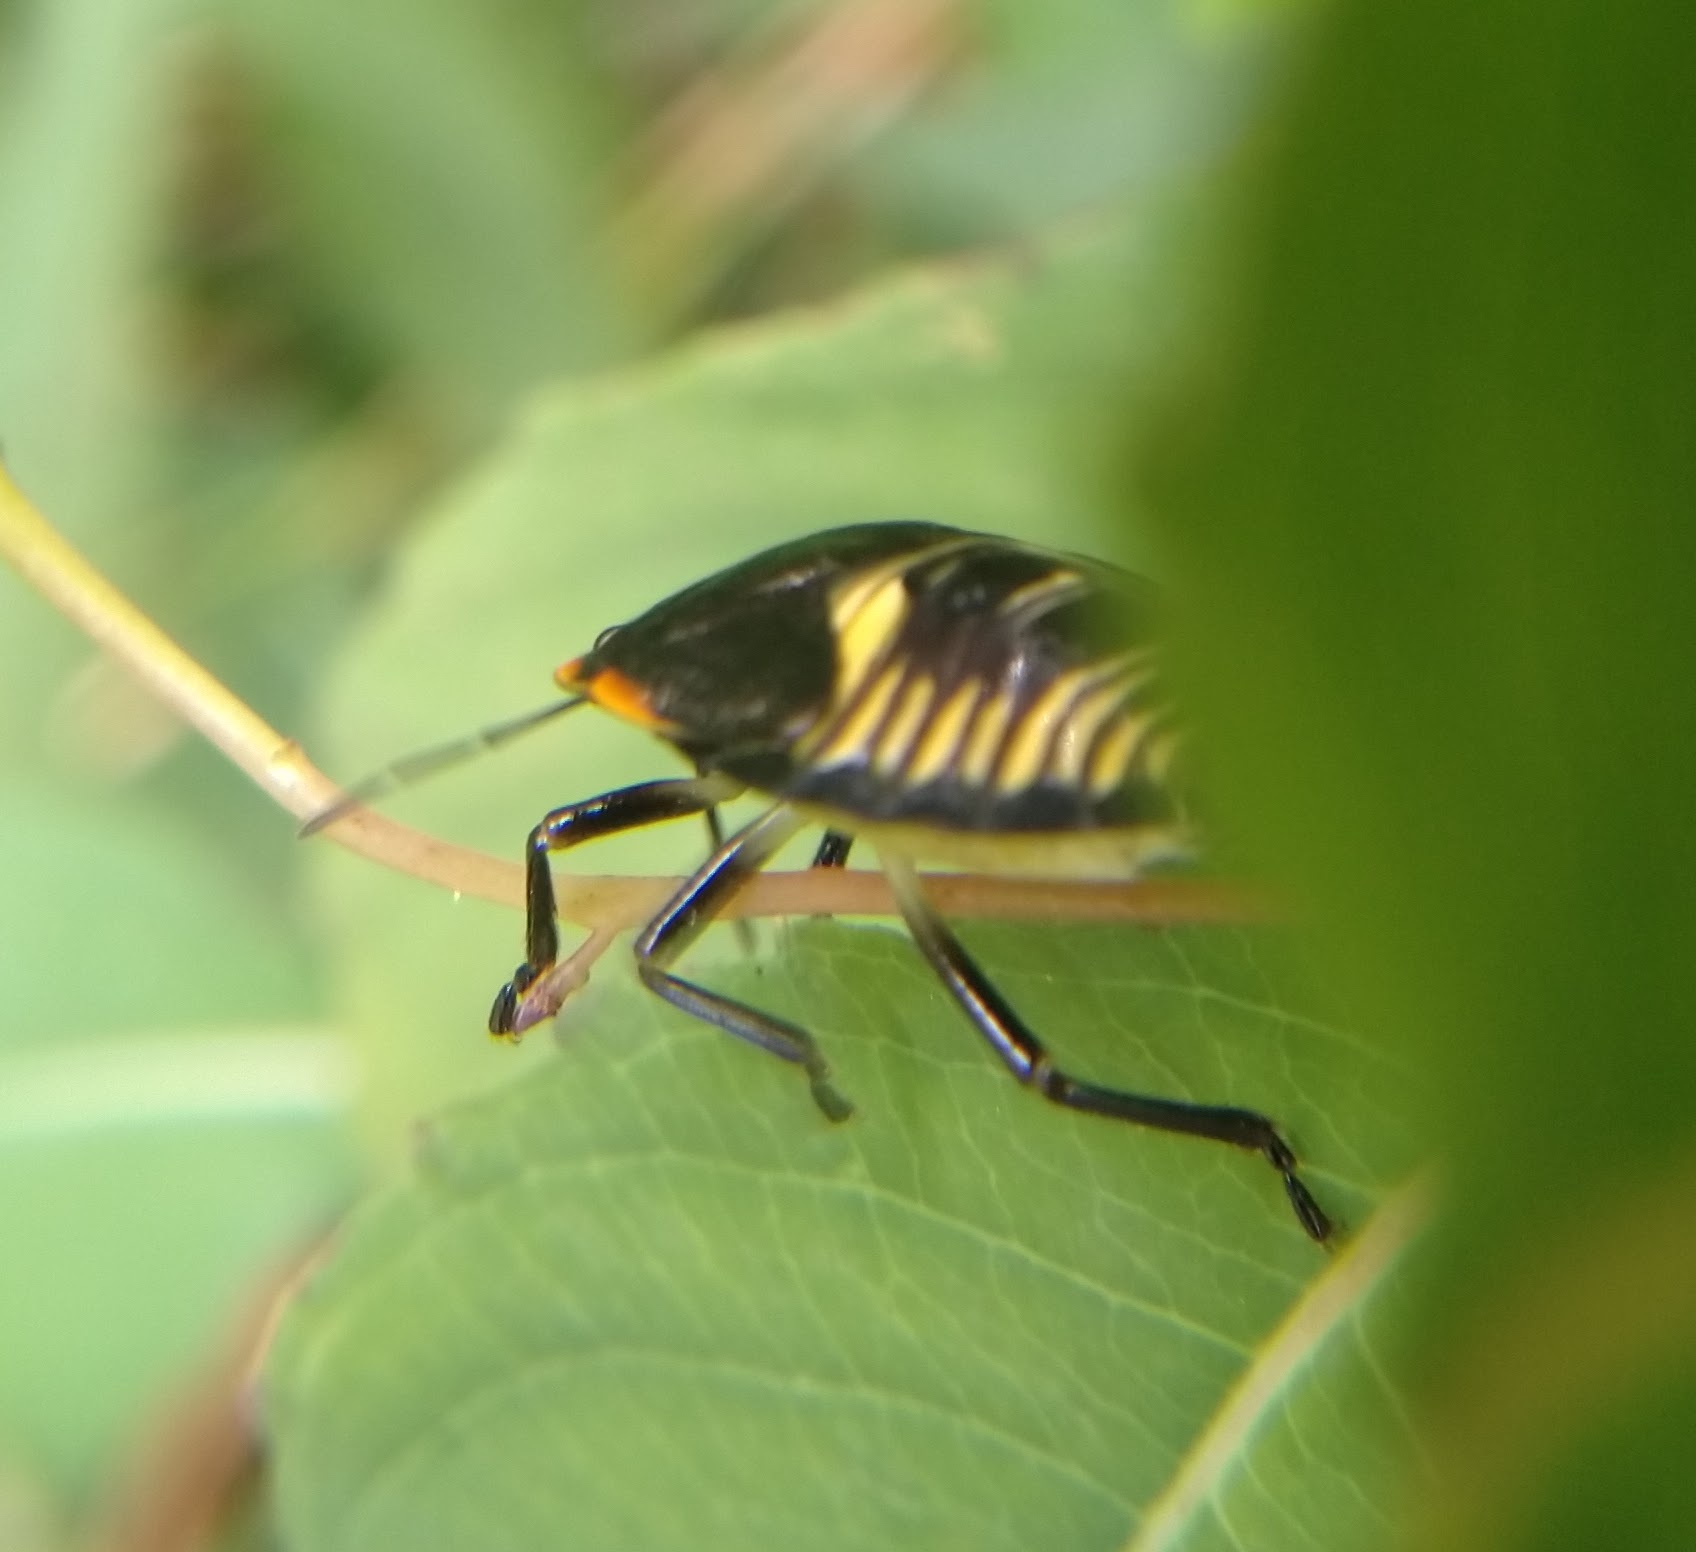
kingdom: Animalia
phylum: Arthropoda
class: Insecta
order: Hemiptera
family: Pentatomidae
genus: Chinavia
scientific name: Chinavia hilaris
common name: Green stink bug
